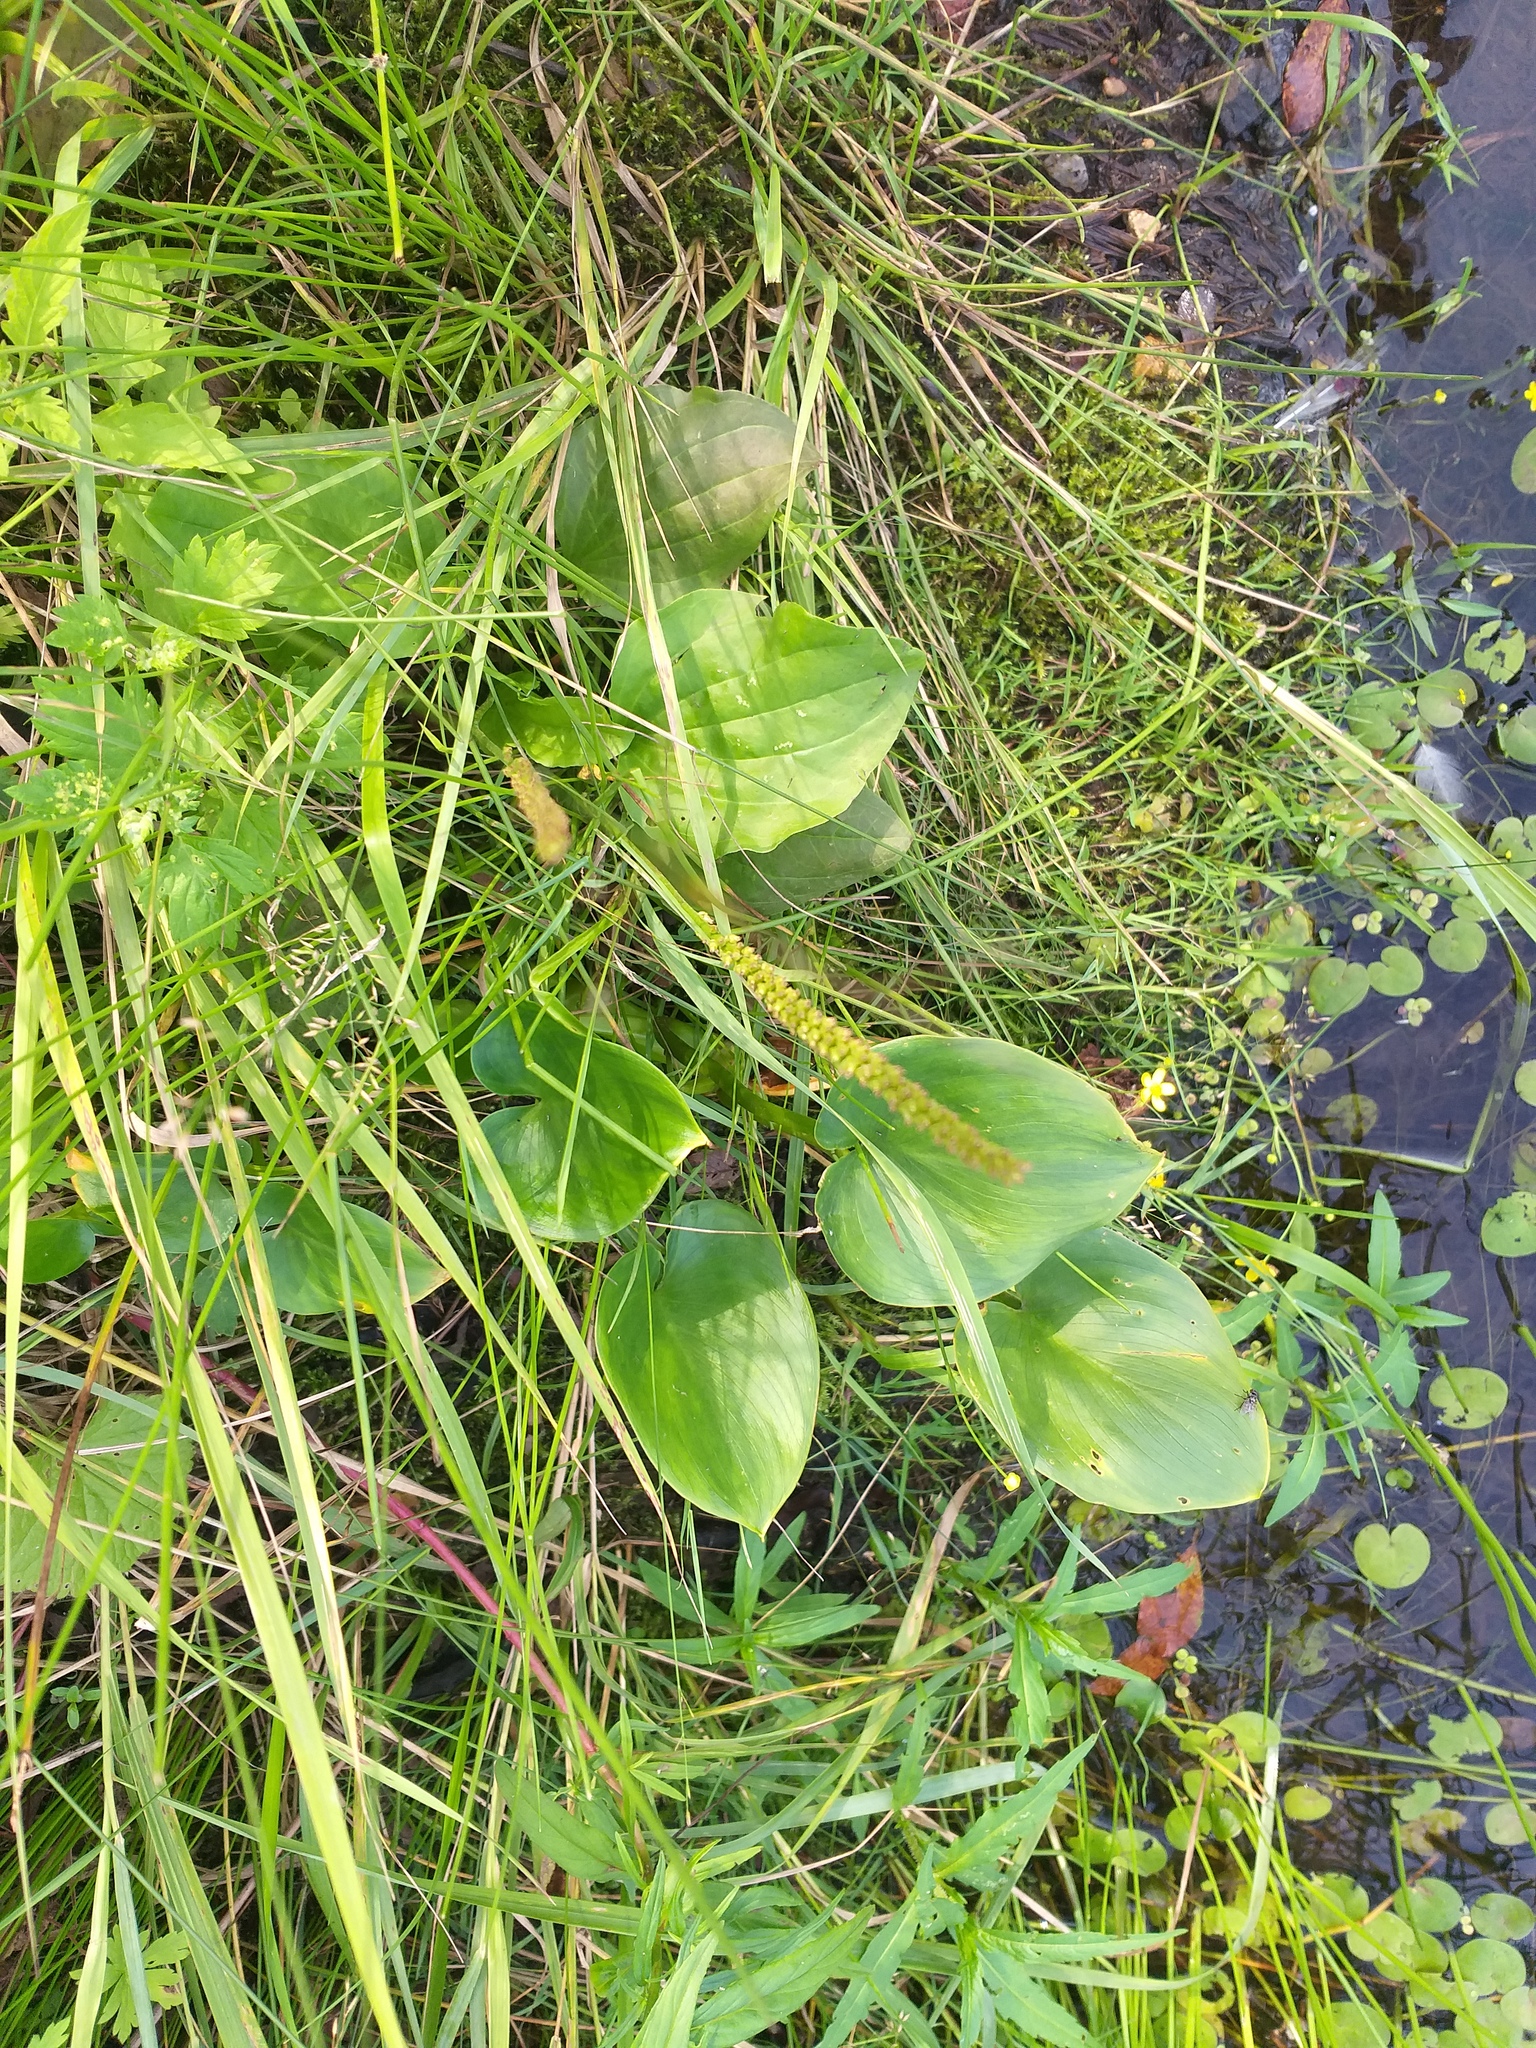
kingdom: Plantae
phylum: Tracheophyta
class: Liliopsida
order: Alismatales
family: Araceae
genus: Calla
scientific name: Calla palustris
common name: Bog arum
